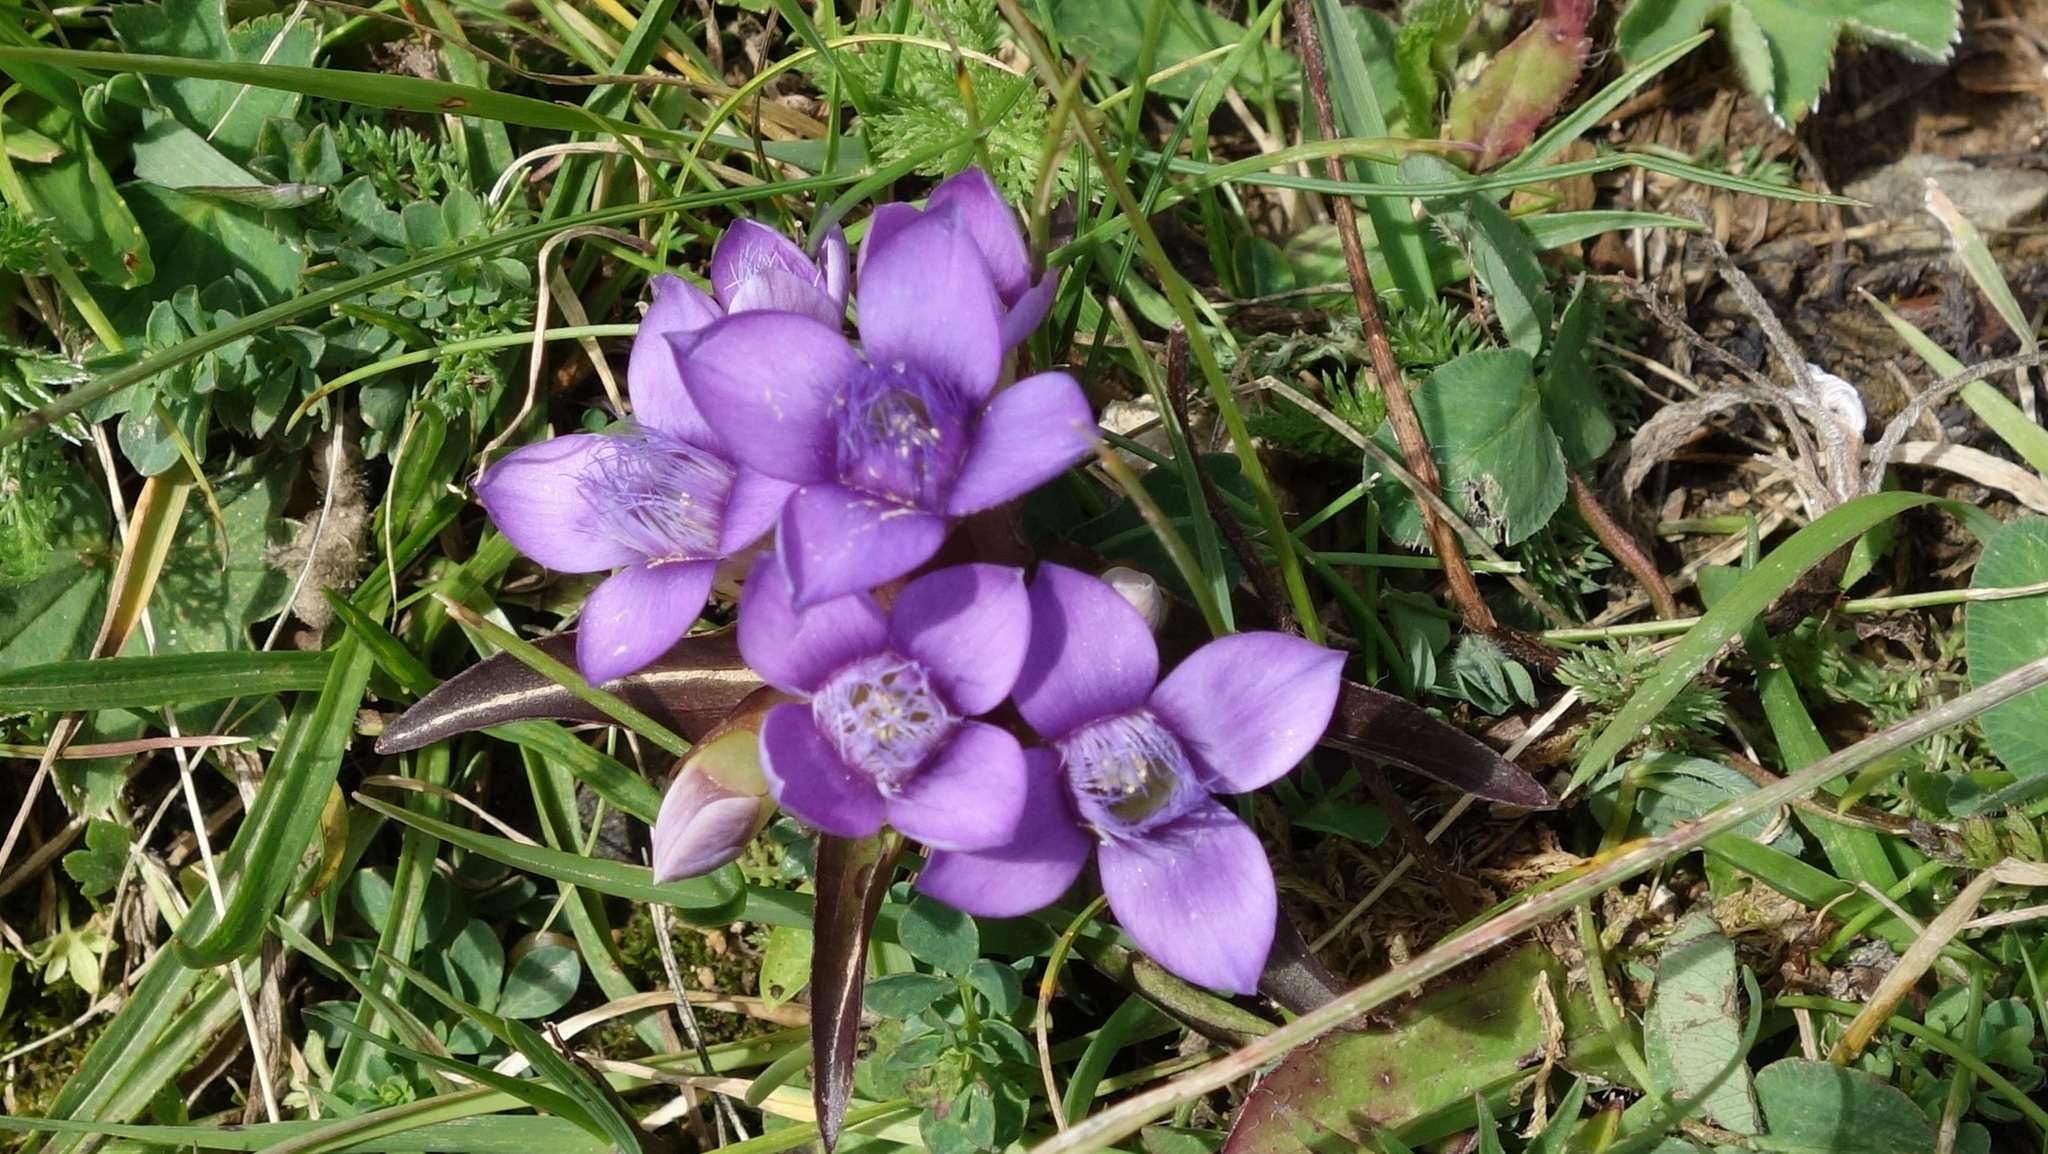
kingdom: Plantae
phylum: Tracheophyta
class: Magnoliopsida
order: Gentianales
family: Gentianaceae
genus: Gentianella
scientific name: Gentianella campestris
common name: Field gentian
